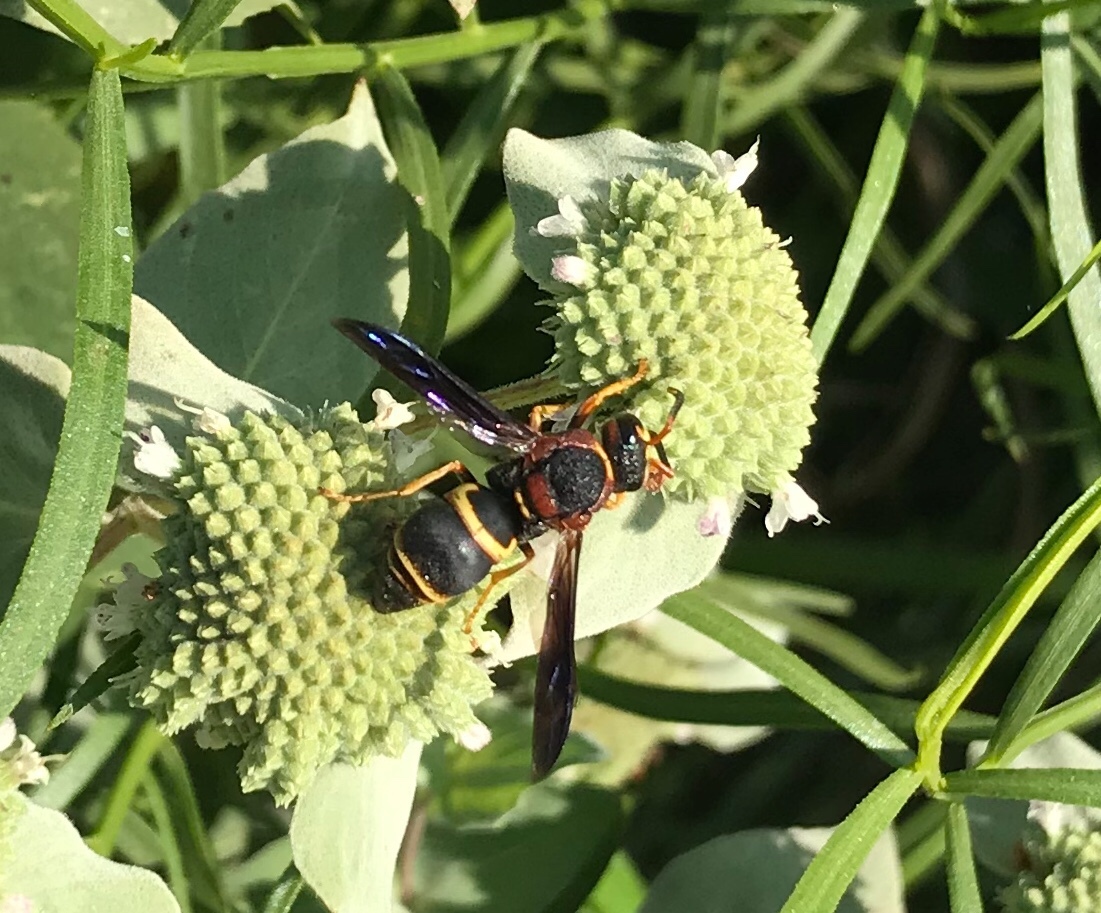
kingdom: Animalia
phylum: Arthropoda
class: Insecta
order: Hymenoptera
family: Eumenidae
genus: Euodynerus
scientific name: Euodynerus crypticus
